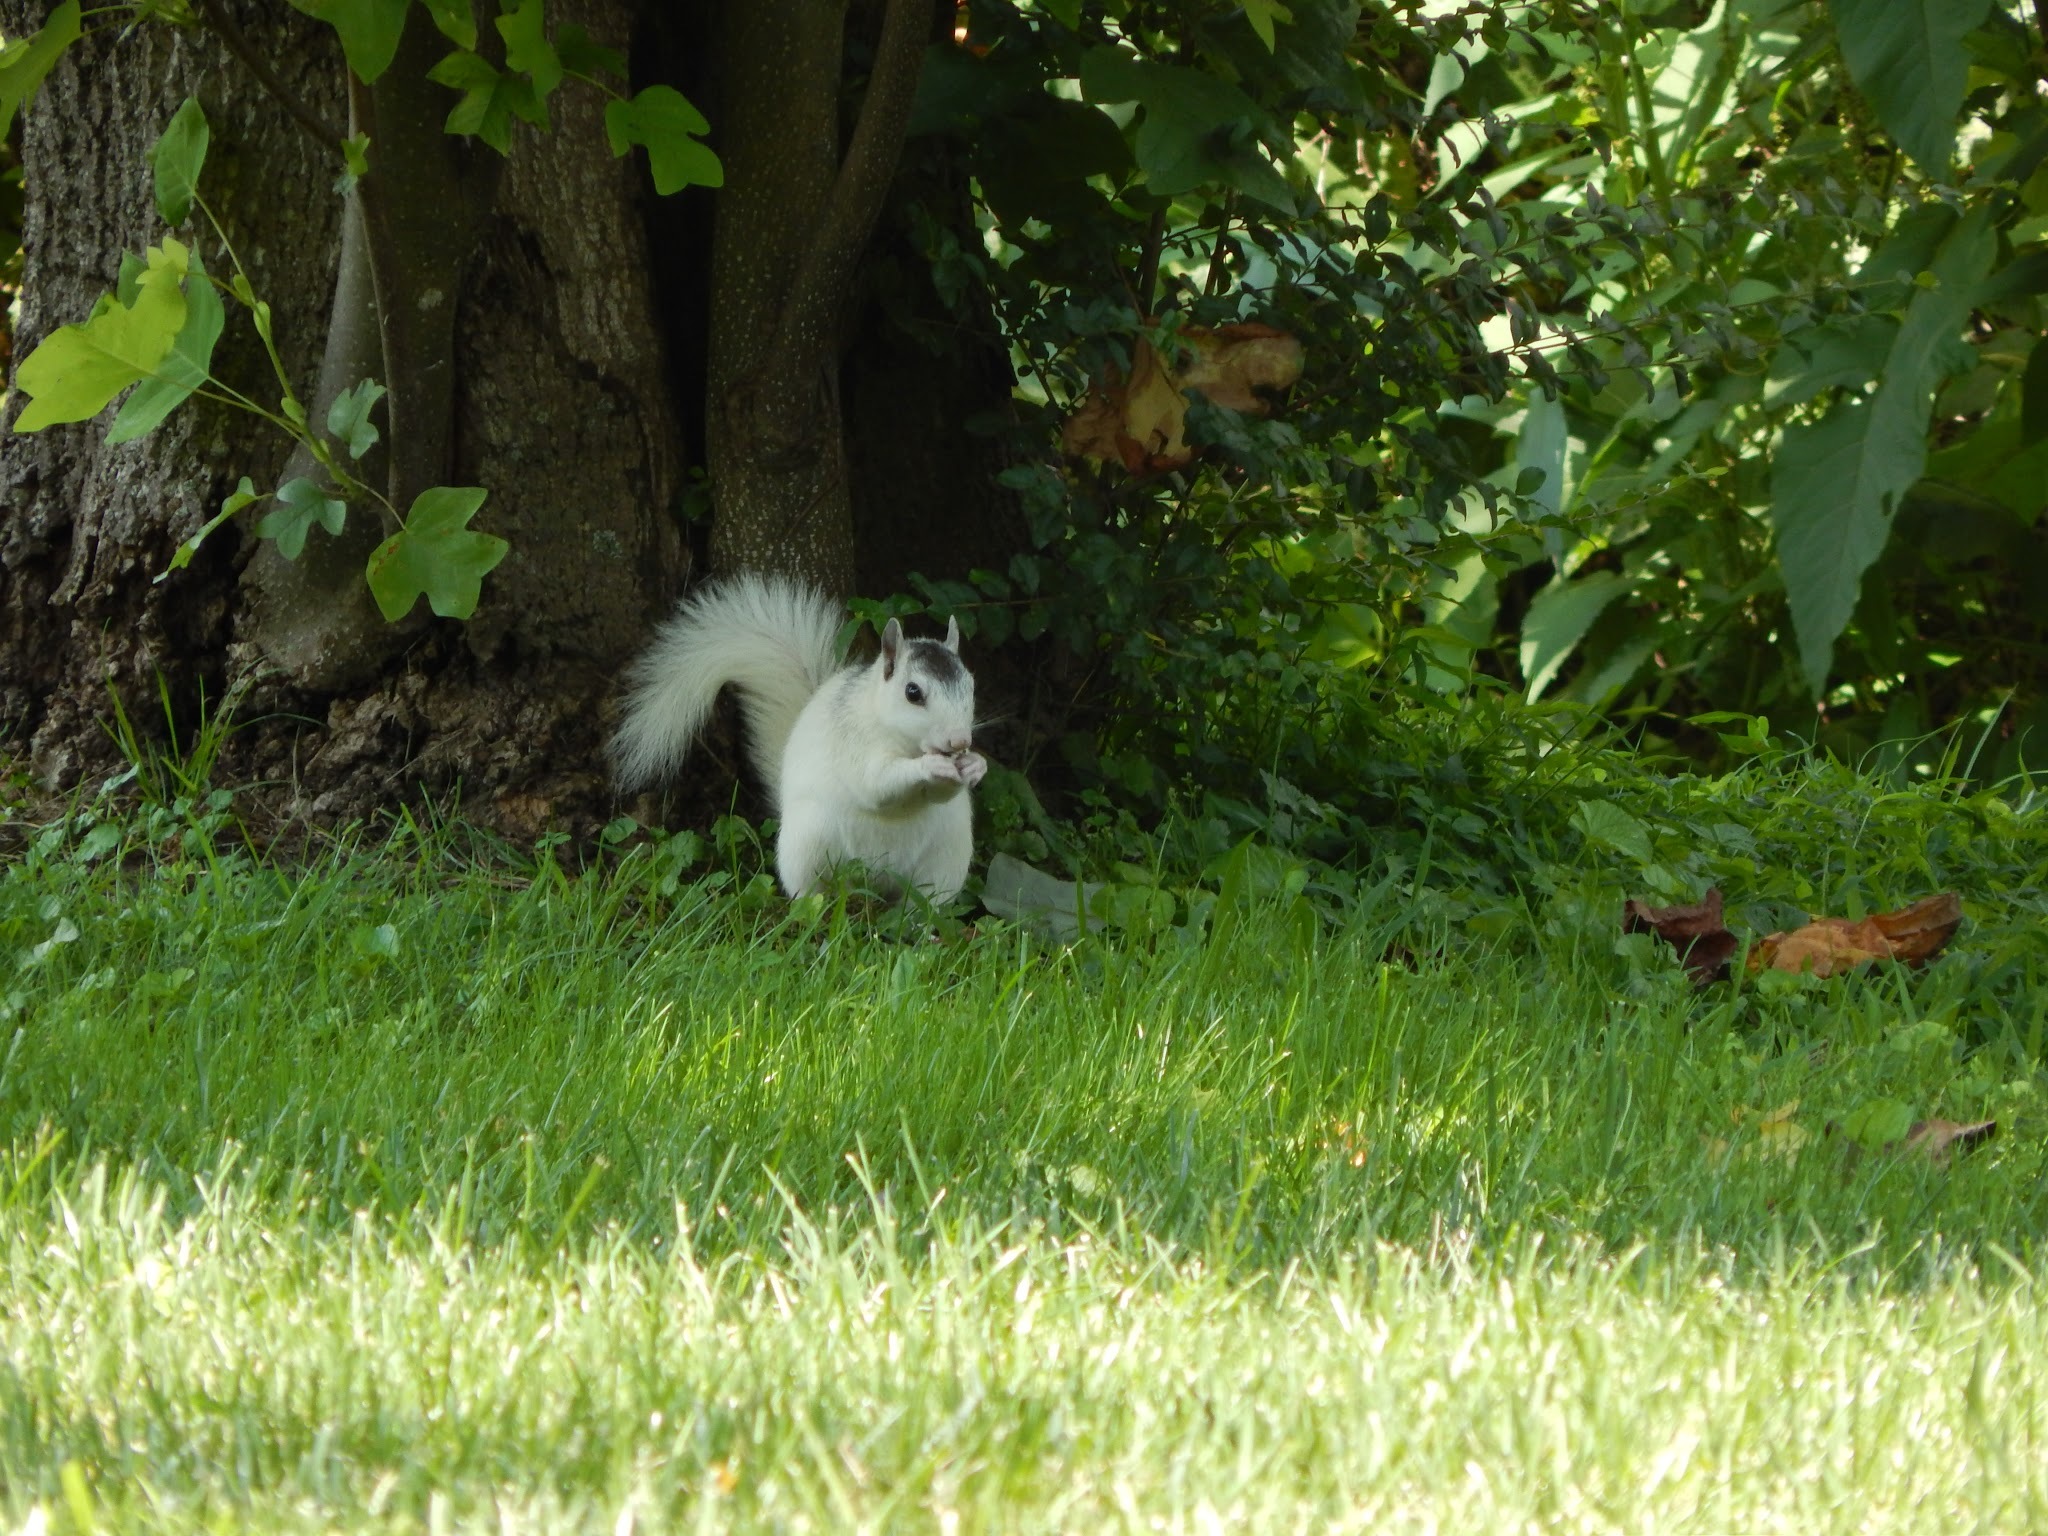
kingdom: Animalia
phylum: Chordata
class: Mammalia
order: Rodentia
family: Sciuridae
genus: Sciurus
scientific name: Sciurus carolinensis
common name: Eastern gray squirrel
